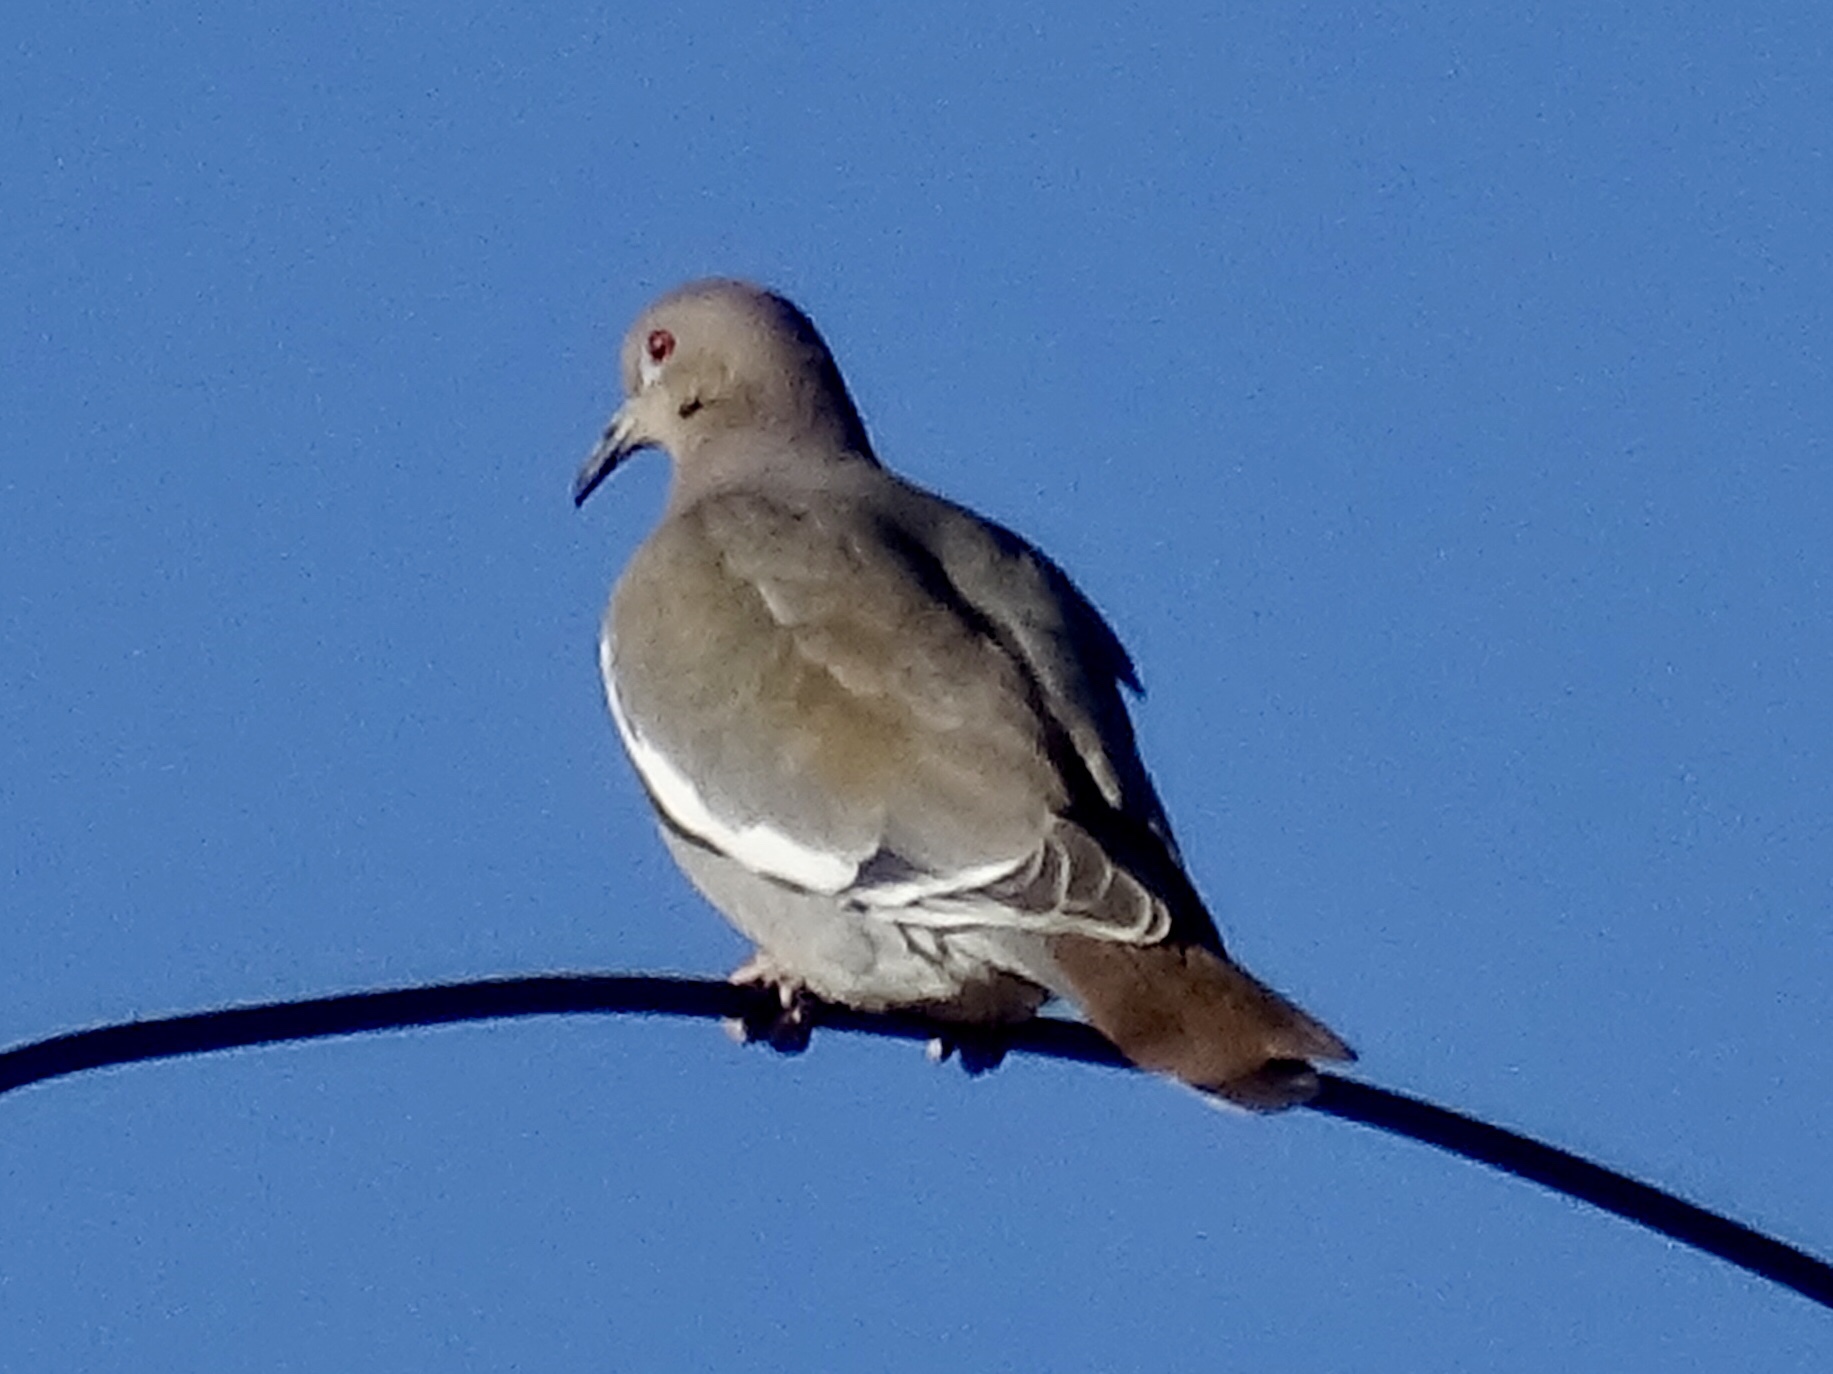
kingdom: Animalia
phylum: Chordata
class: Aves
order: Columbiformes
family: Columbidae
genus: Zenaida
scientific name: Zenaida asiatica
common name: White-winged dove
